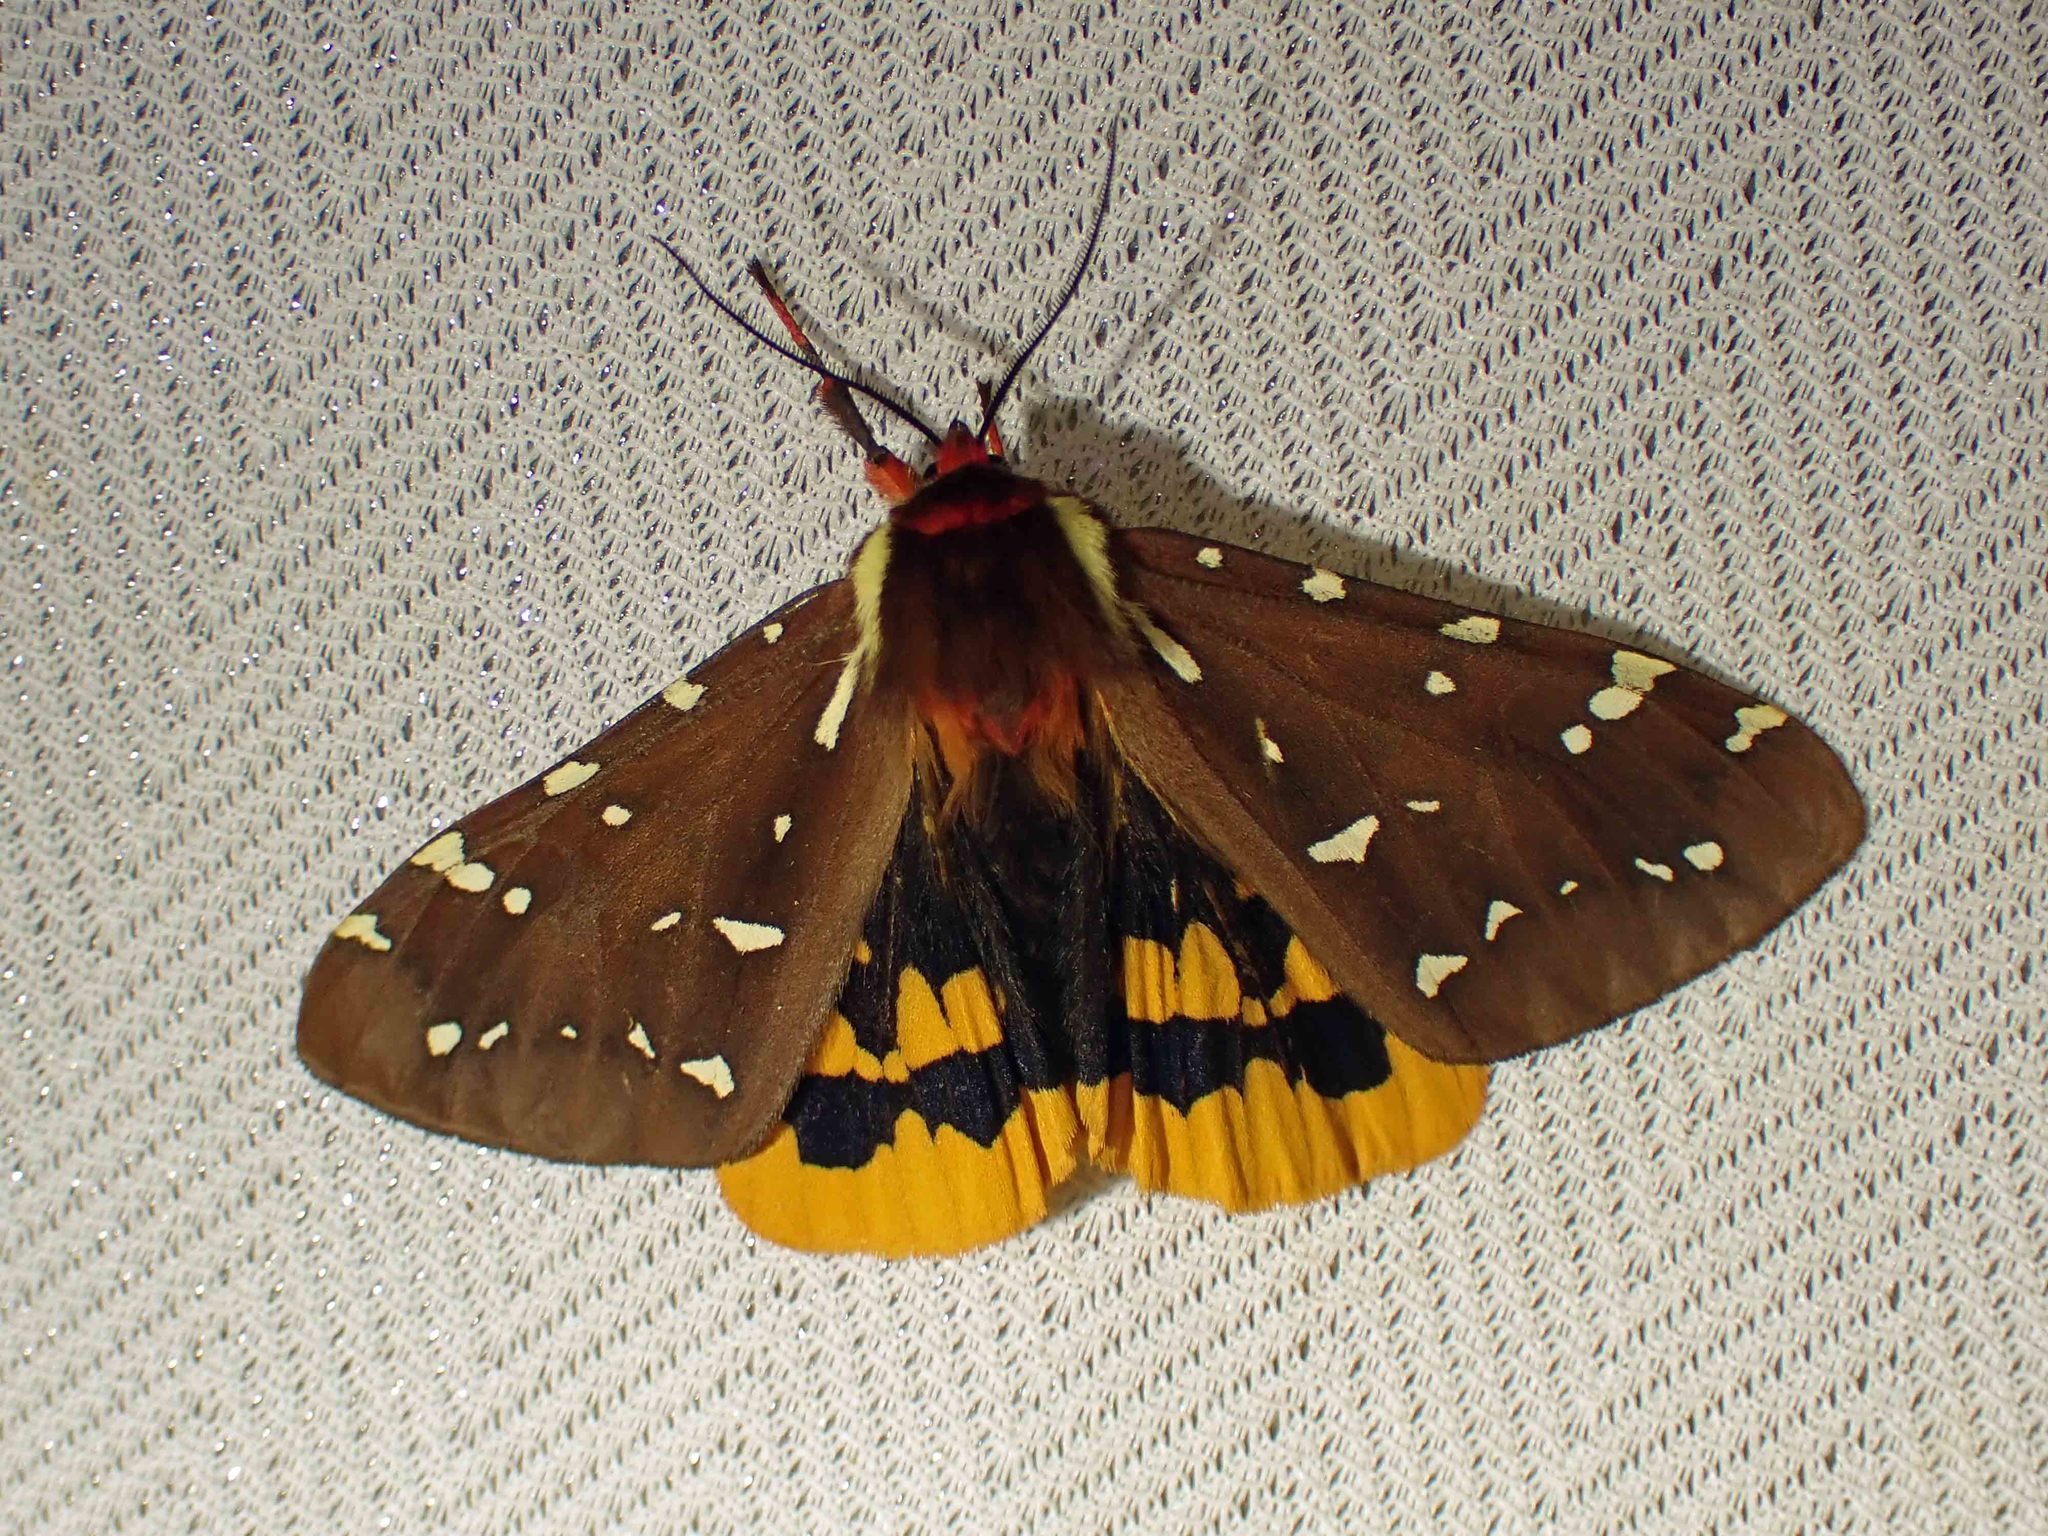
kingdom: Animalia
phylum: Arthropoda
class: Insecta
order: Lepidoptera
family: Erebidae
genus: Arctia
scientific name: Arctia parthenos
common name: St. lawrence tiger moth
